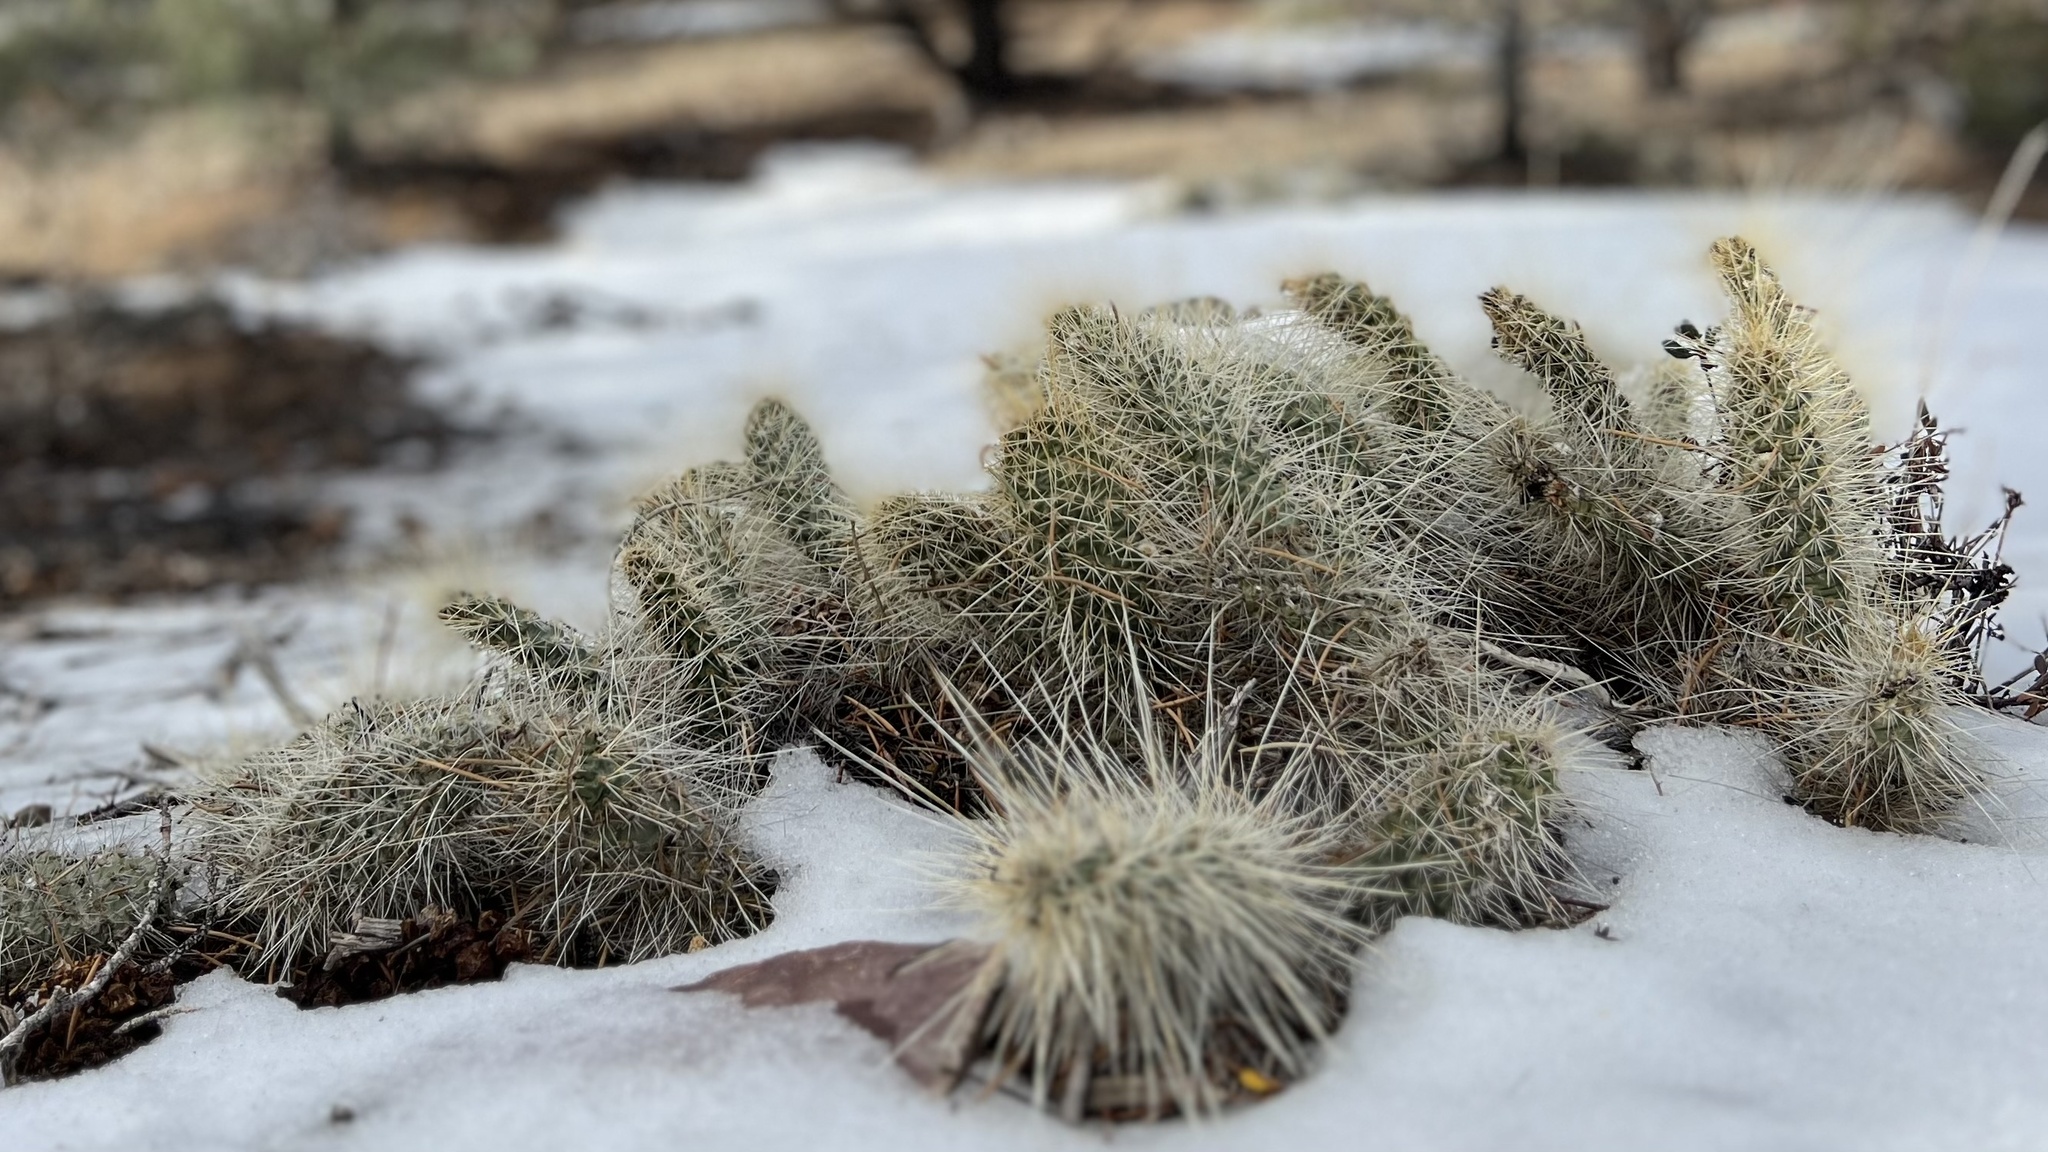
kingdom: Plantae
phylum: Tracheophyta
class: Magnoliopsida
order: Caryophyllales
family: Cactaceae
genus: Opuntia
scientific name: Opuntia polyacantha
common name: Plains prickly-pear
